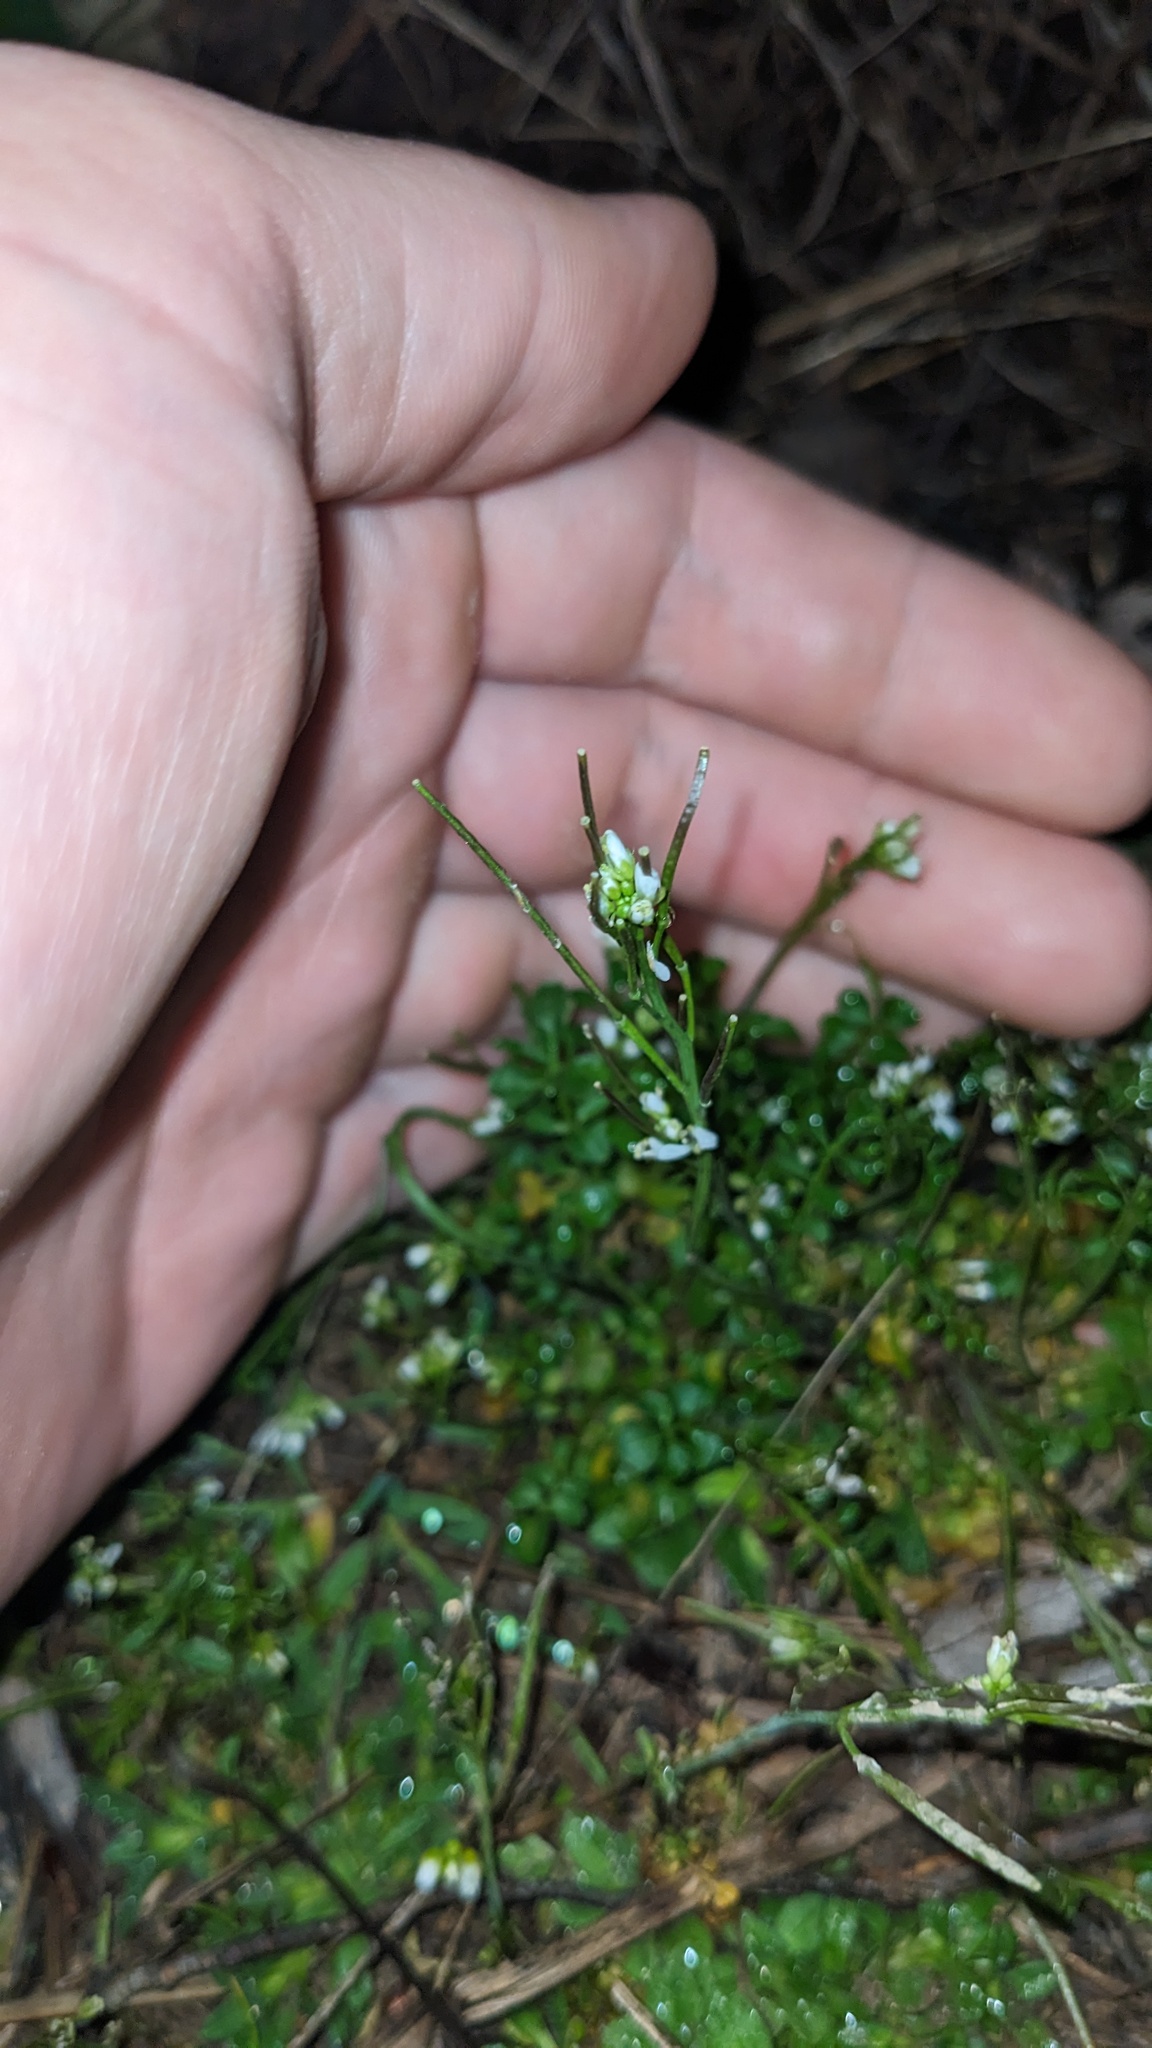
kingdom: Plantae
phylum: Tracheophyta
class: Magnoliopsida
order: Brassicales
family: Brassicaceae
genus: Cardamine
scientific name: Cardamine hirsuta
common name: Hairy bittercress
